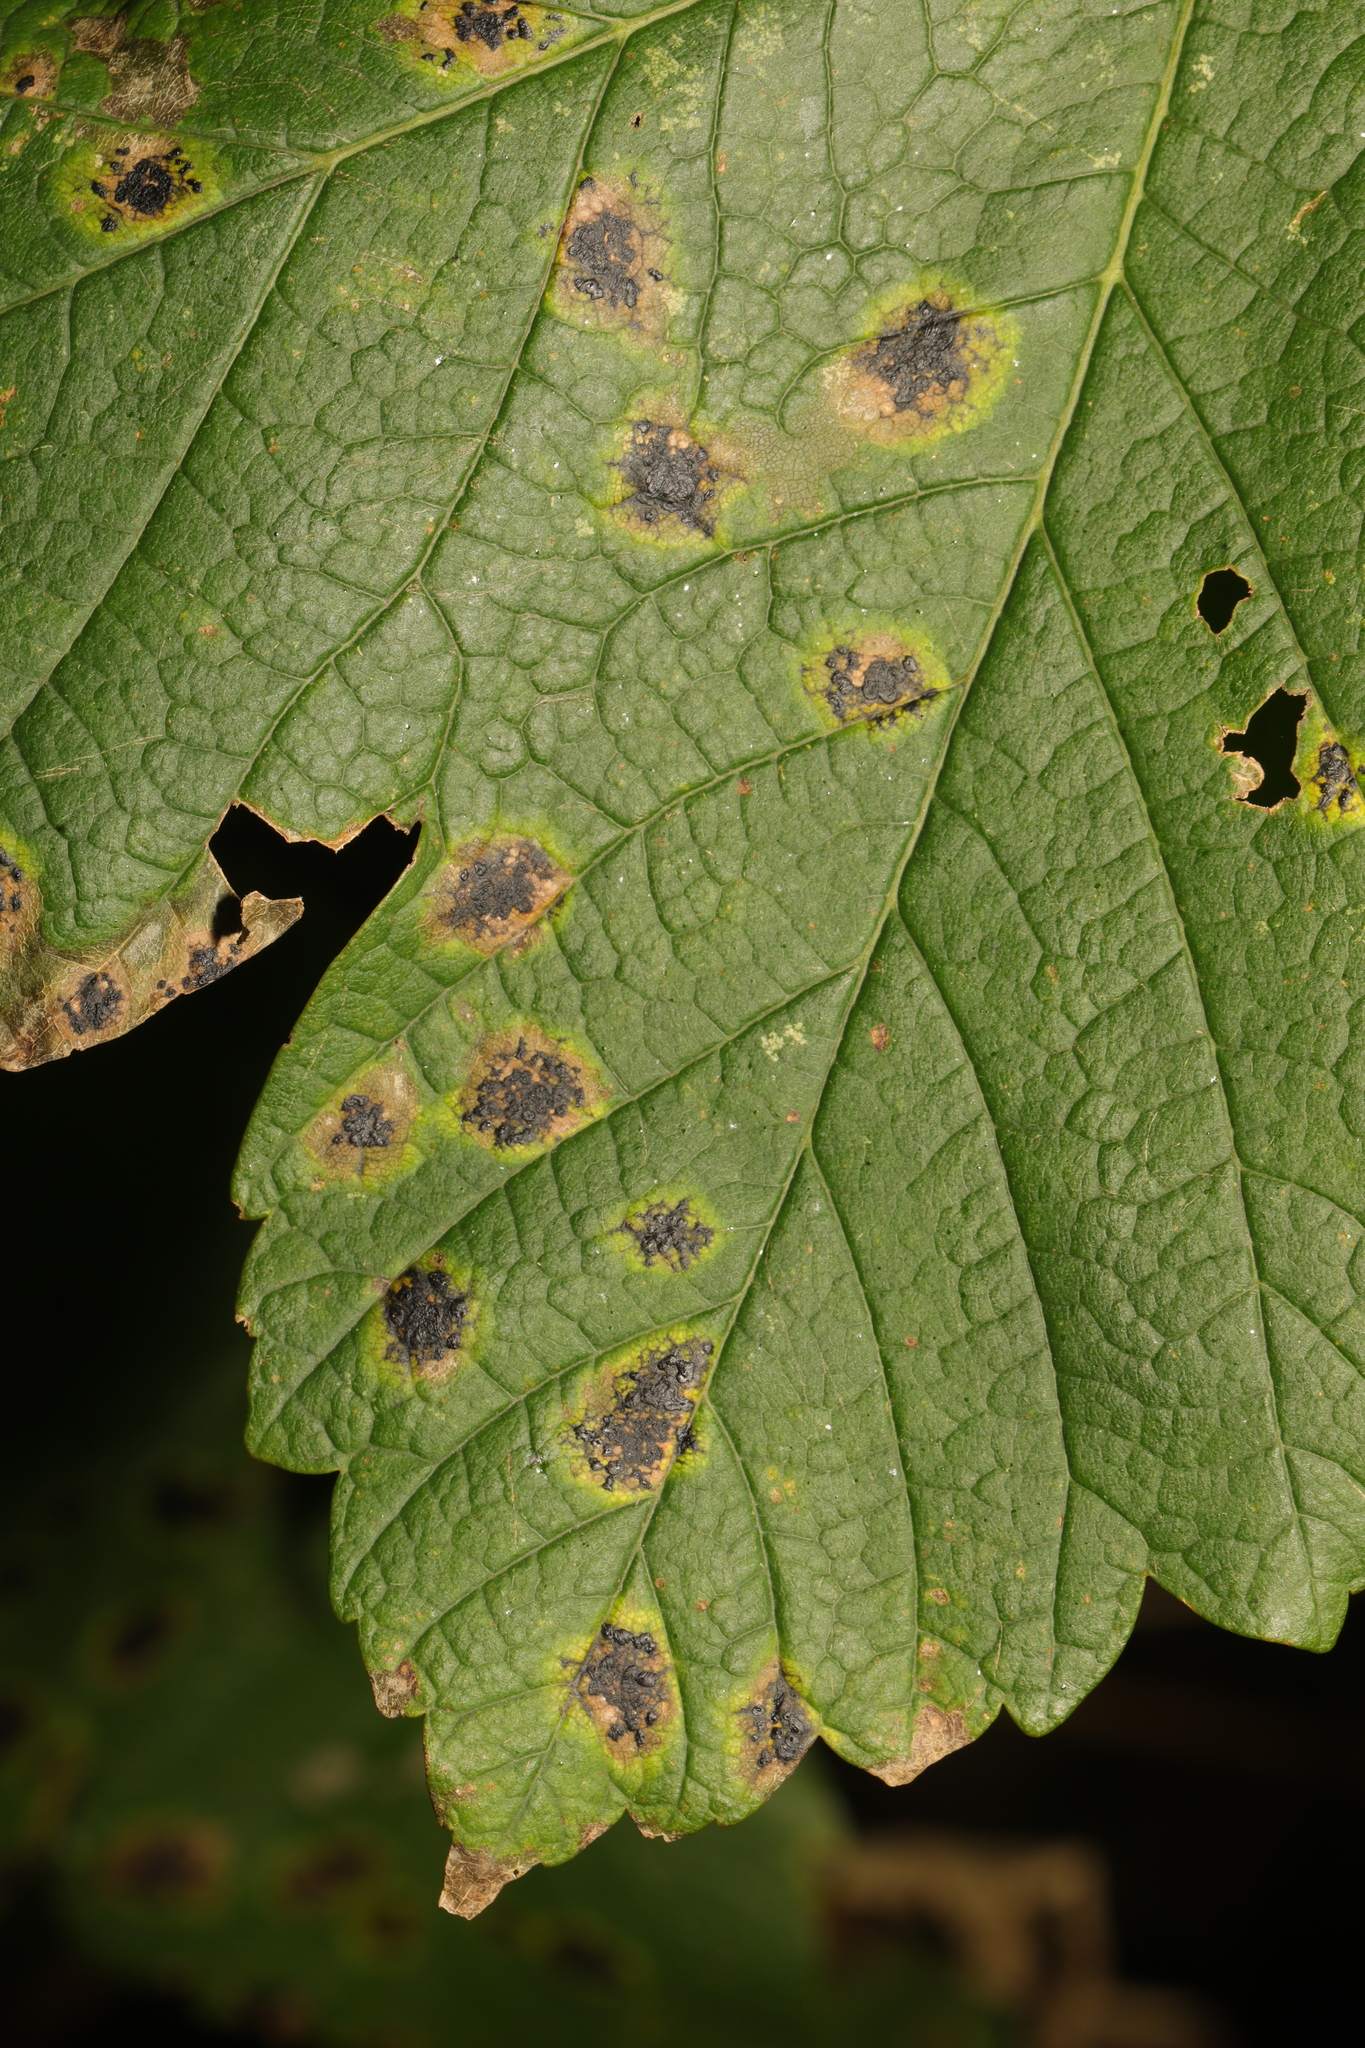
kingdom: Fungi
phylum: Ascomycota
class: Leotiomycetes
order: Rhytismatales
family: Rhytismataceae
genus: Rhytisma
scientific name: Rhytisma acerinum
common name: European tar spot
